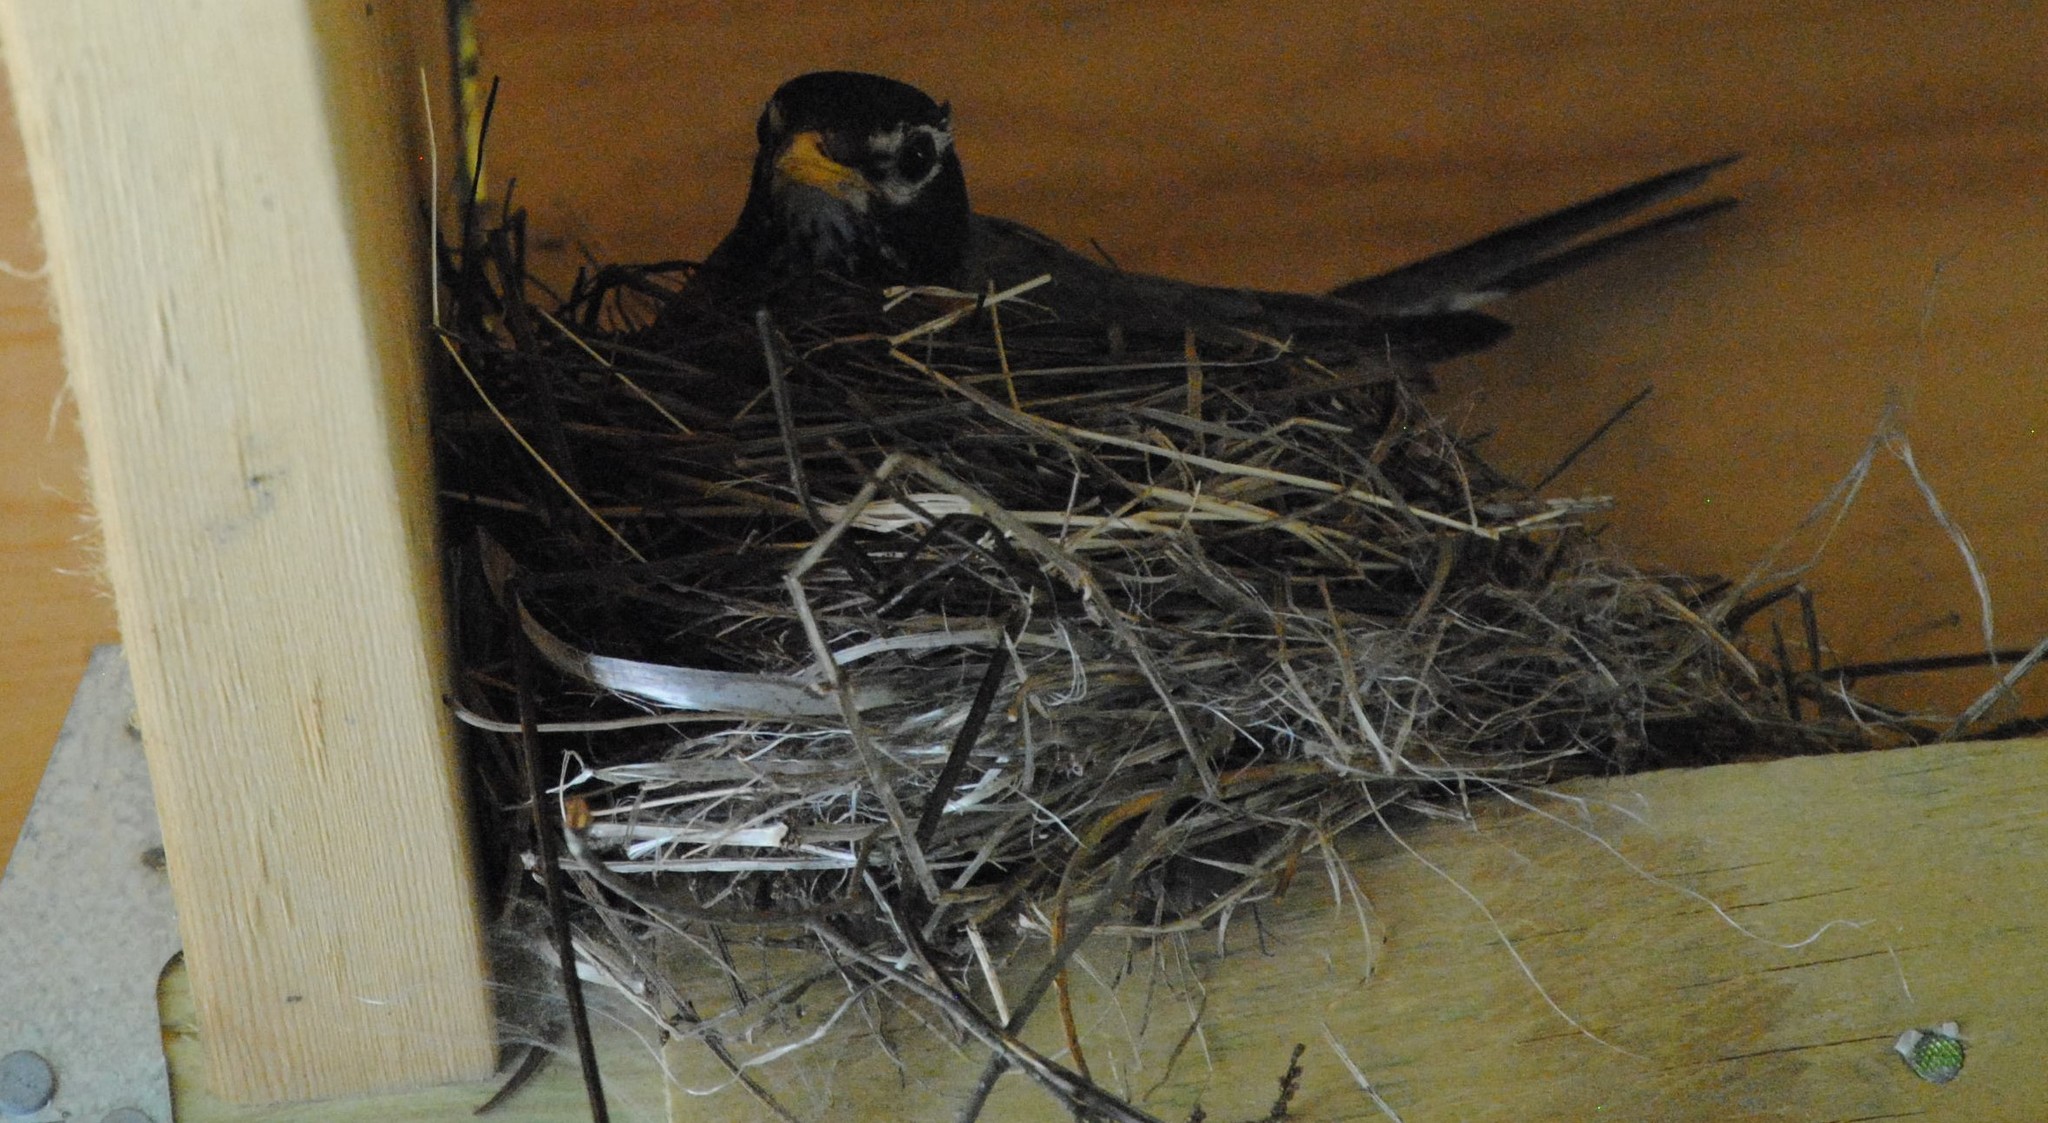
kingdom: Animalia
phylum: Chordata
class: Aves
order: Passeriformes
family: Turdidae
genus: Turdus
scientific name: Turdus migratorius
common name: American robin
